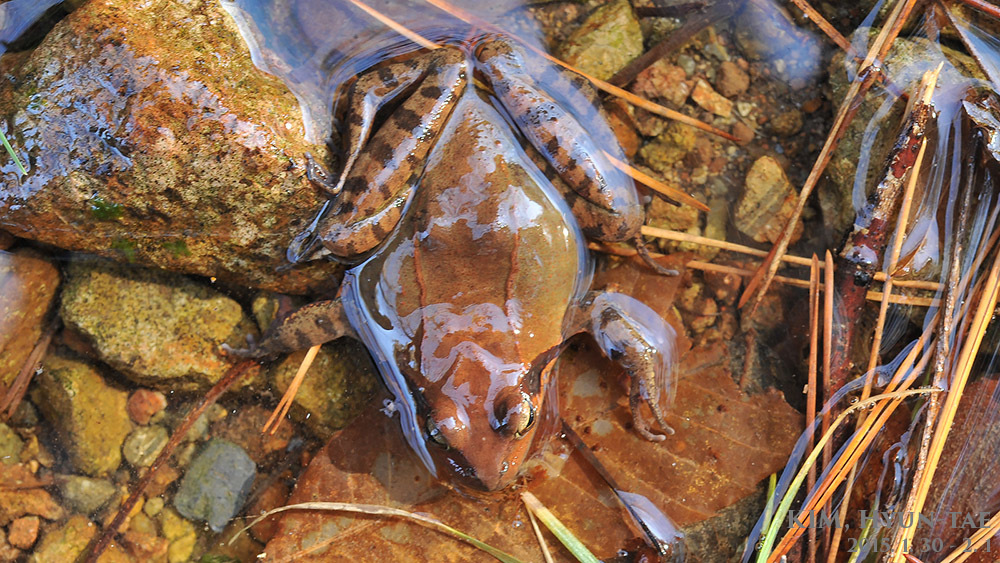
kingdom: Animalia
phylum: Chordata
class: Amphibia
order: Anura
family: Ranidae
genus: Rana
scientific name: Rana uenoi
